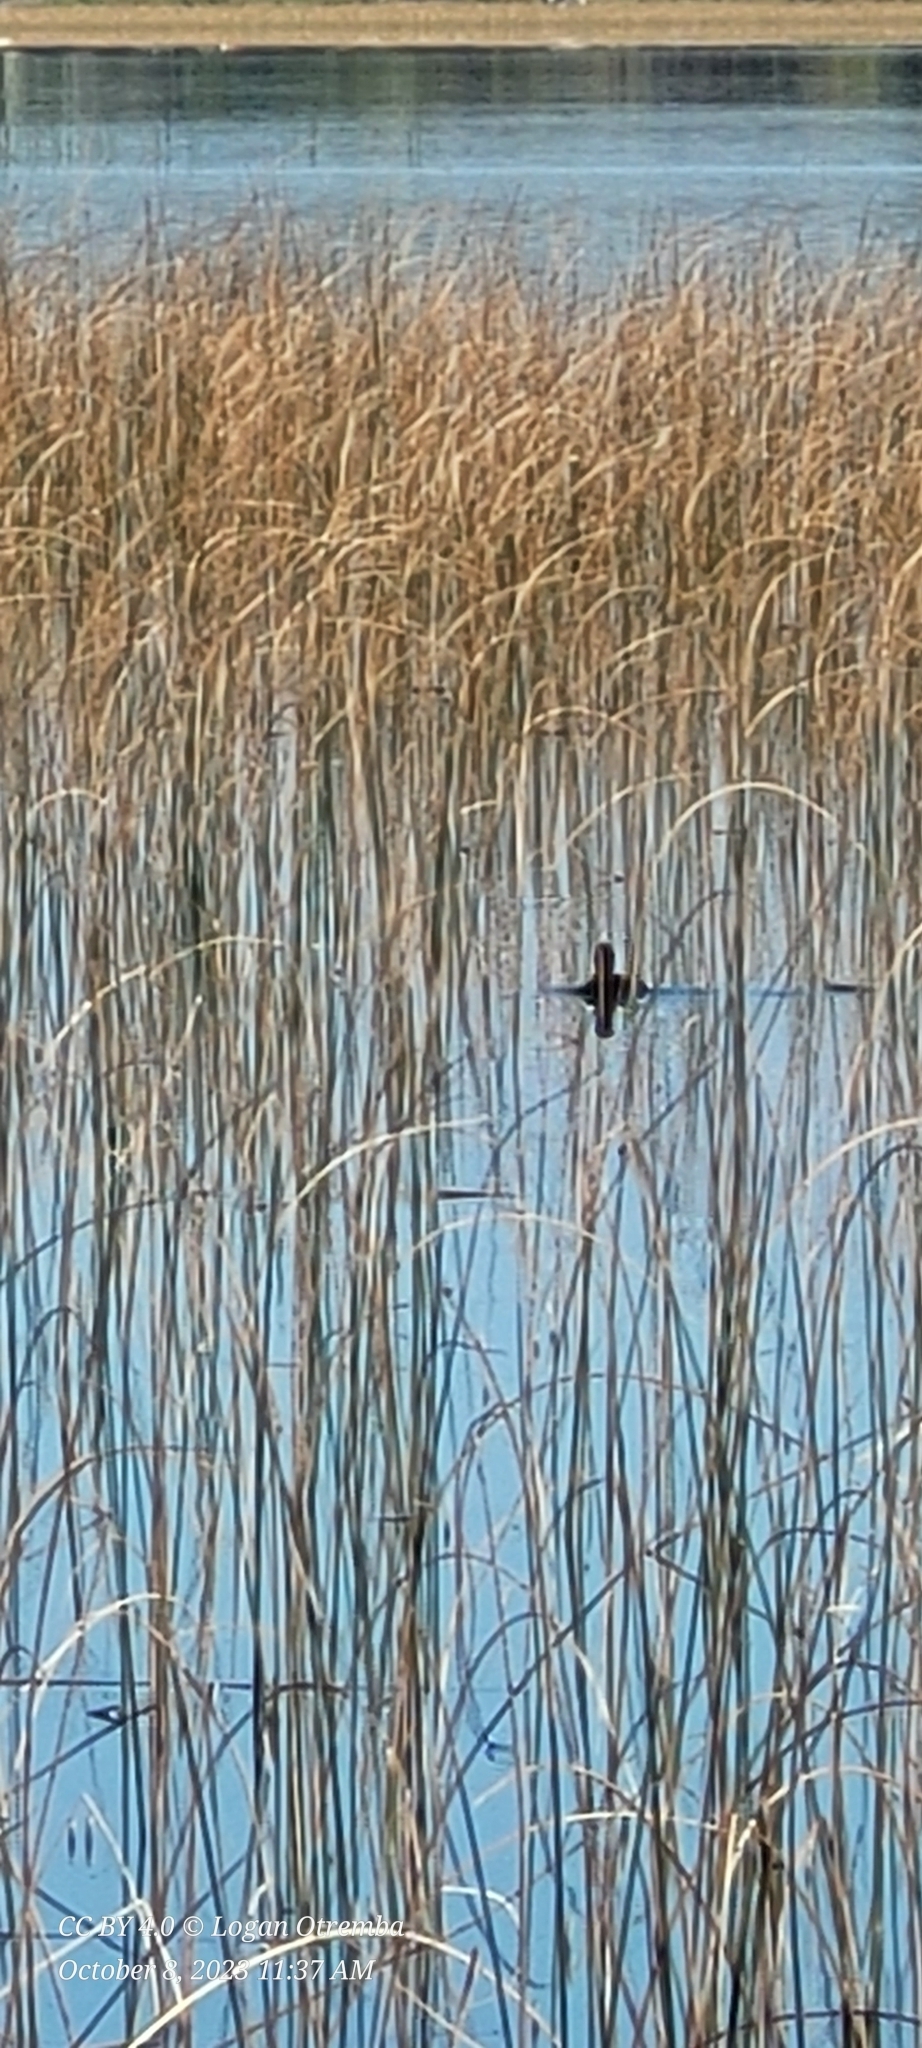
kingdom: Animalia
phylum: Chordata
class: Aves
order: Gruiformes
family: Rallidae
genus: Fulica
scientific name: Fulica americana
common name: American coot
